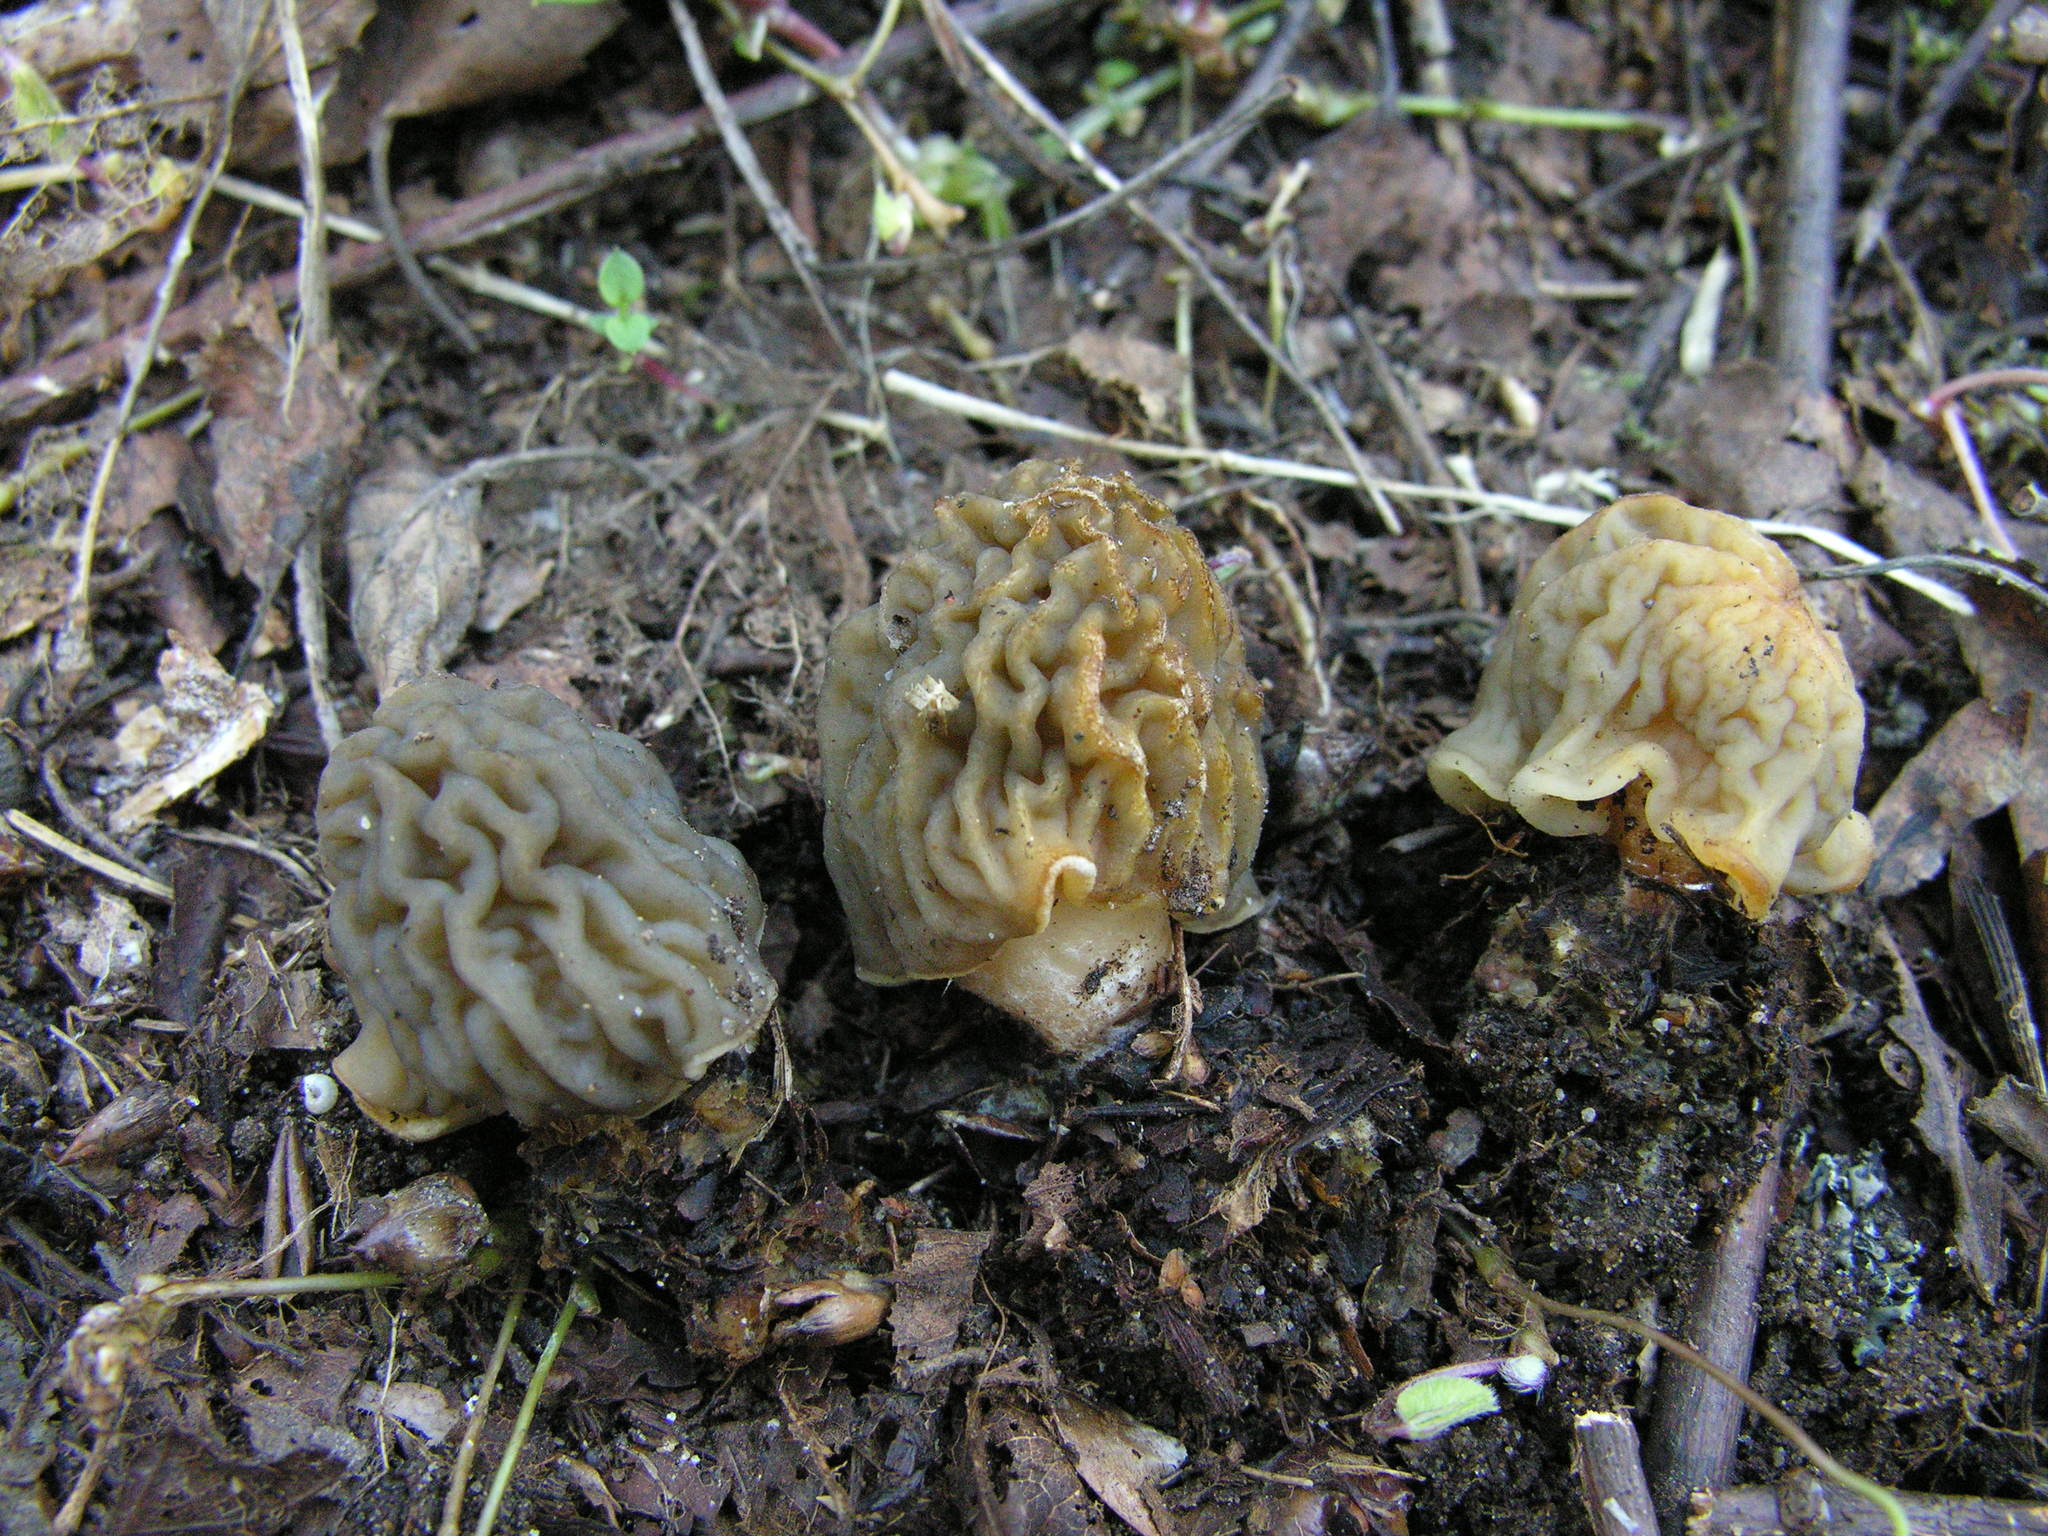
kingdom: Fungi
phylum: Ascomycota
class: Pezizomycetes
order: Pezizales
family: Morchellaceae
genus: Verpa
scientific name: Verpa bohemica
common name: Wrinkled thimble morel
